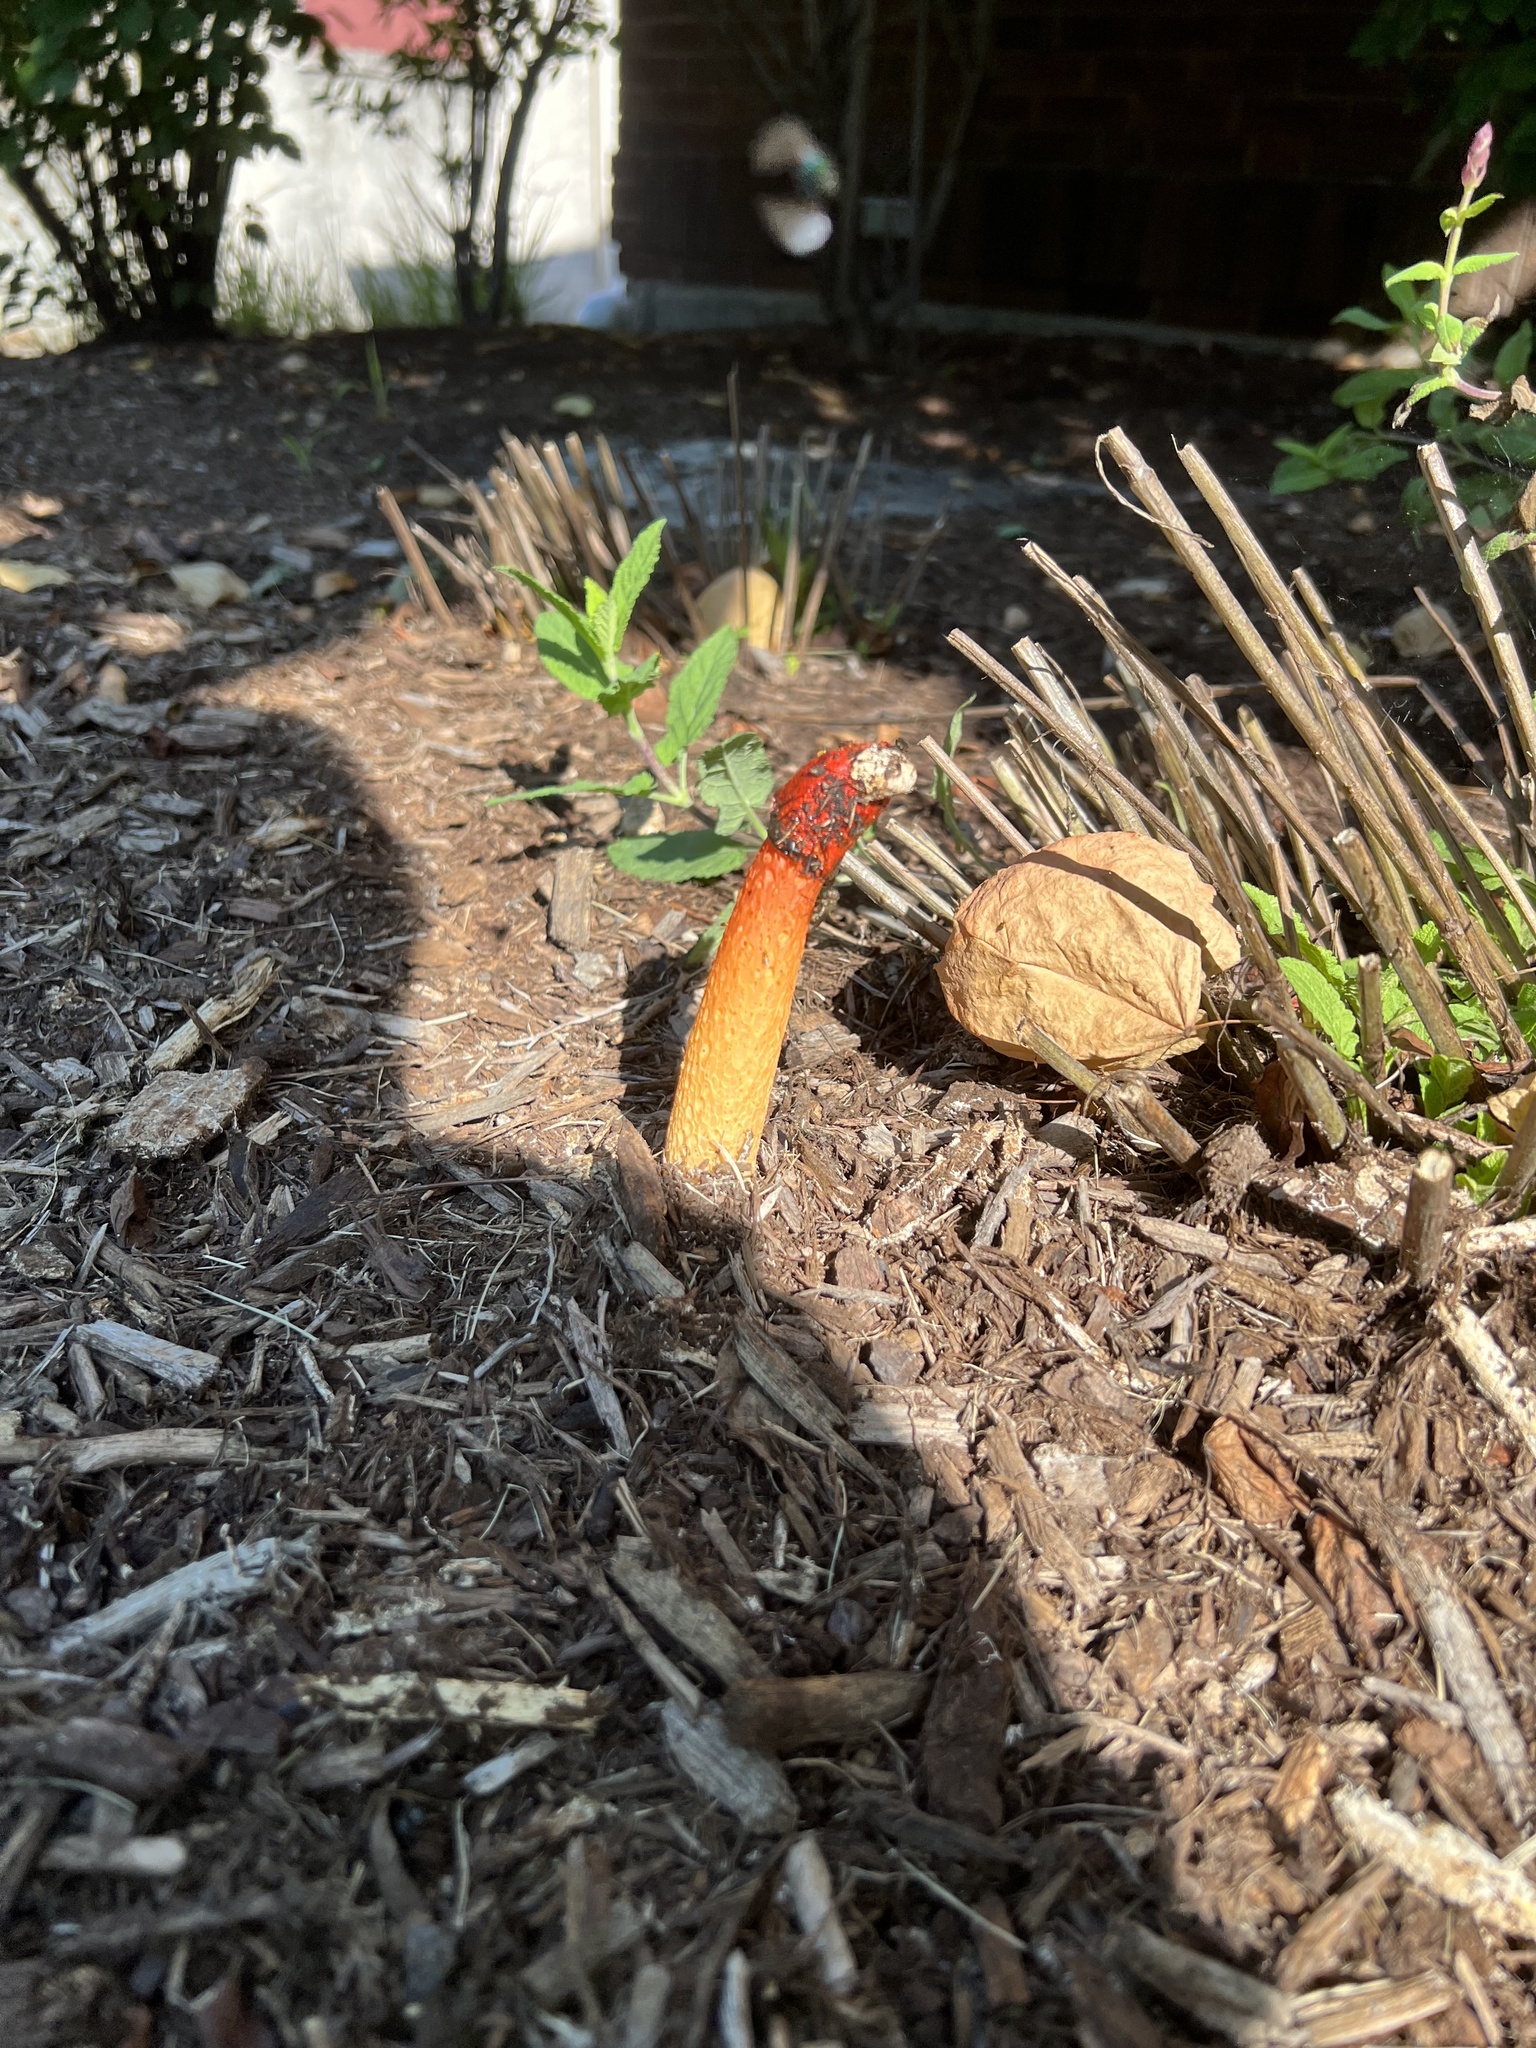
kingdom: Fungi
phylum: Basidiomycota
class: Agaricomycetes
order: Phallales
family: Phallaceae
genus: Phallus
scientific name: Phallus rugulosus
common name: Wrinkly stinkhorn
